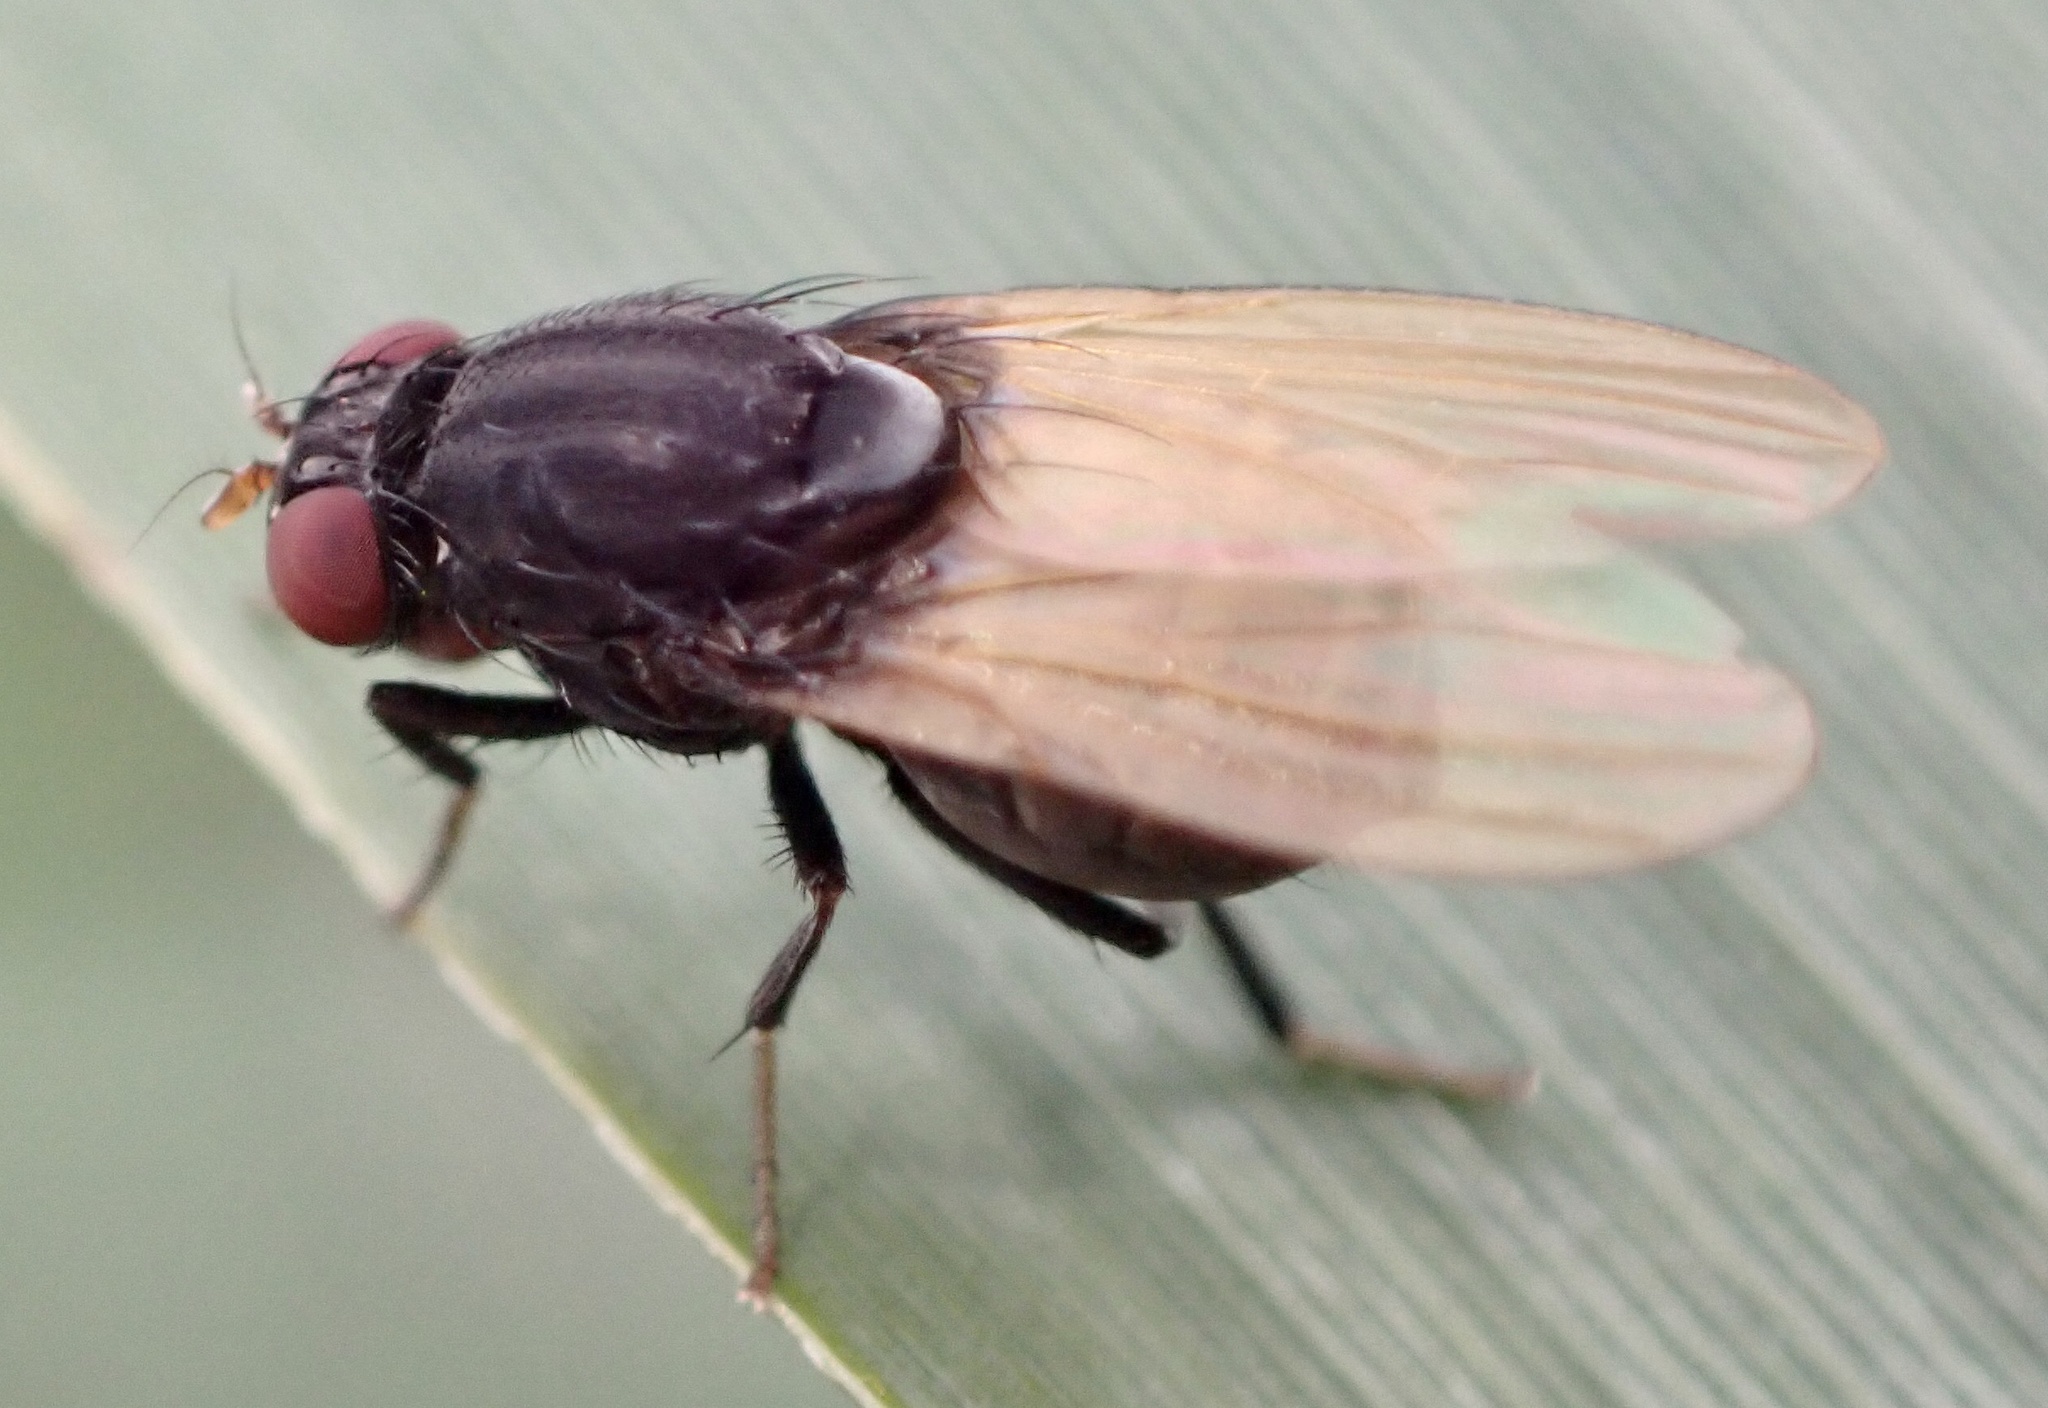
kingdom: Animalia
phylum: Arthropoda
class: Insecta
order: Diptera
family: Lauxaniidae
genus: Minettia
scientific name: Minettia longipennis
